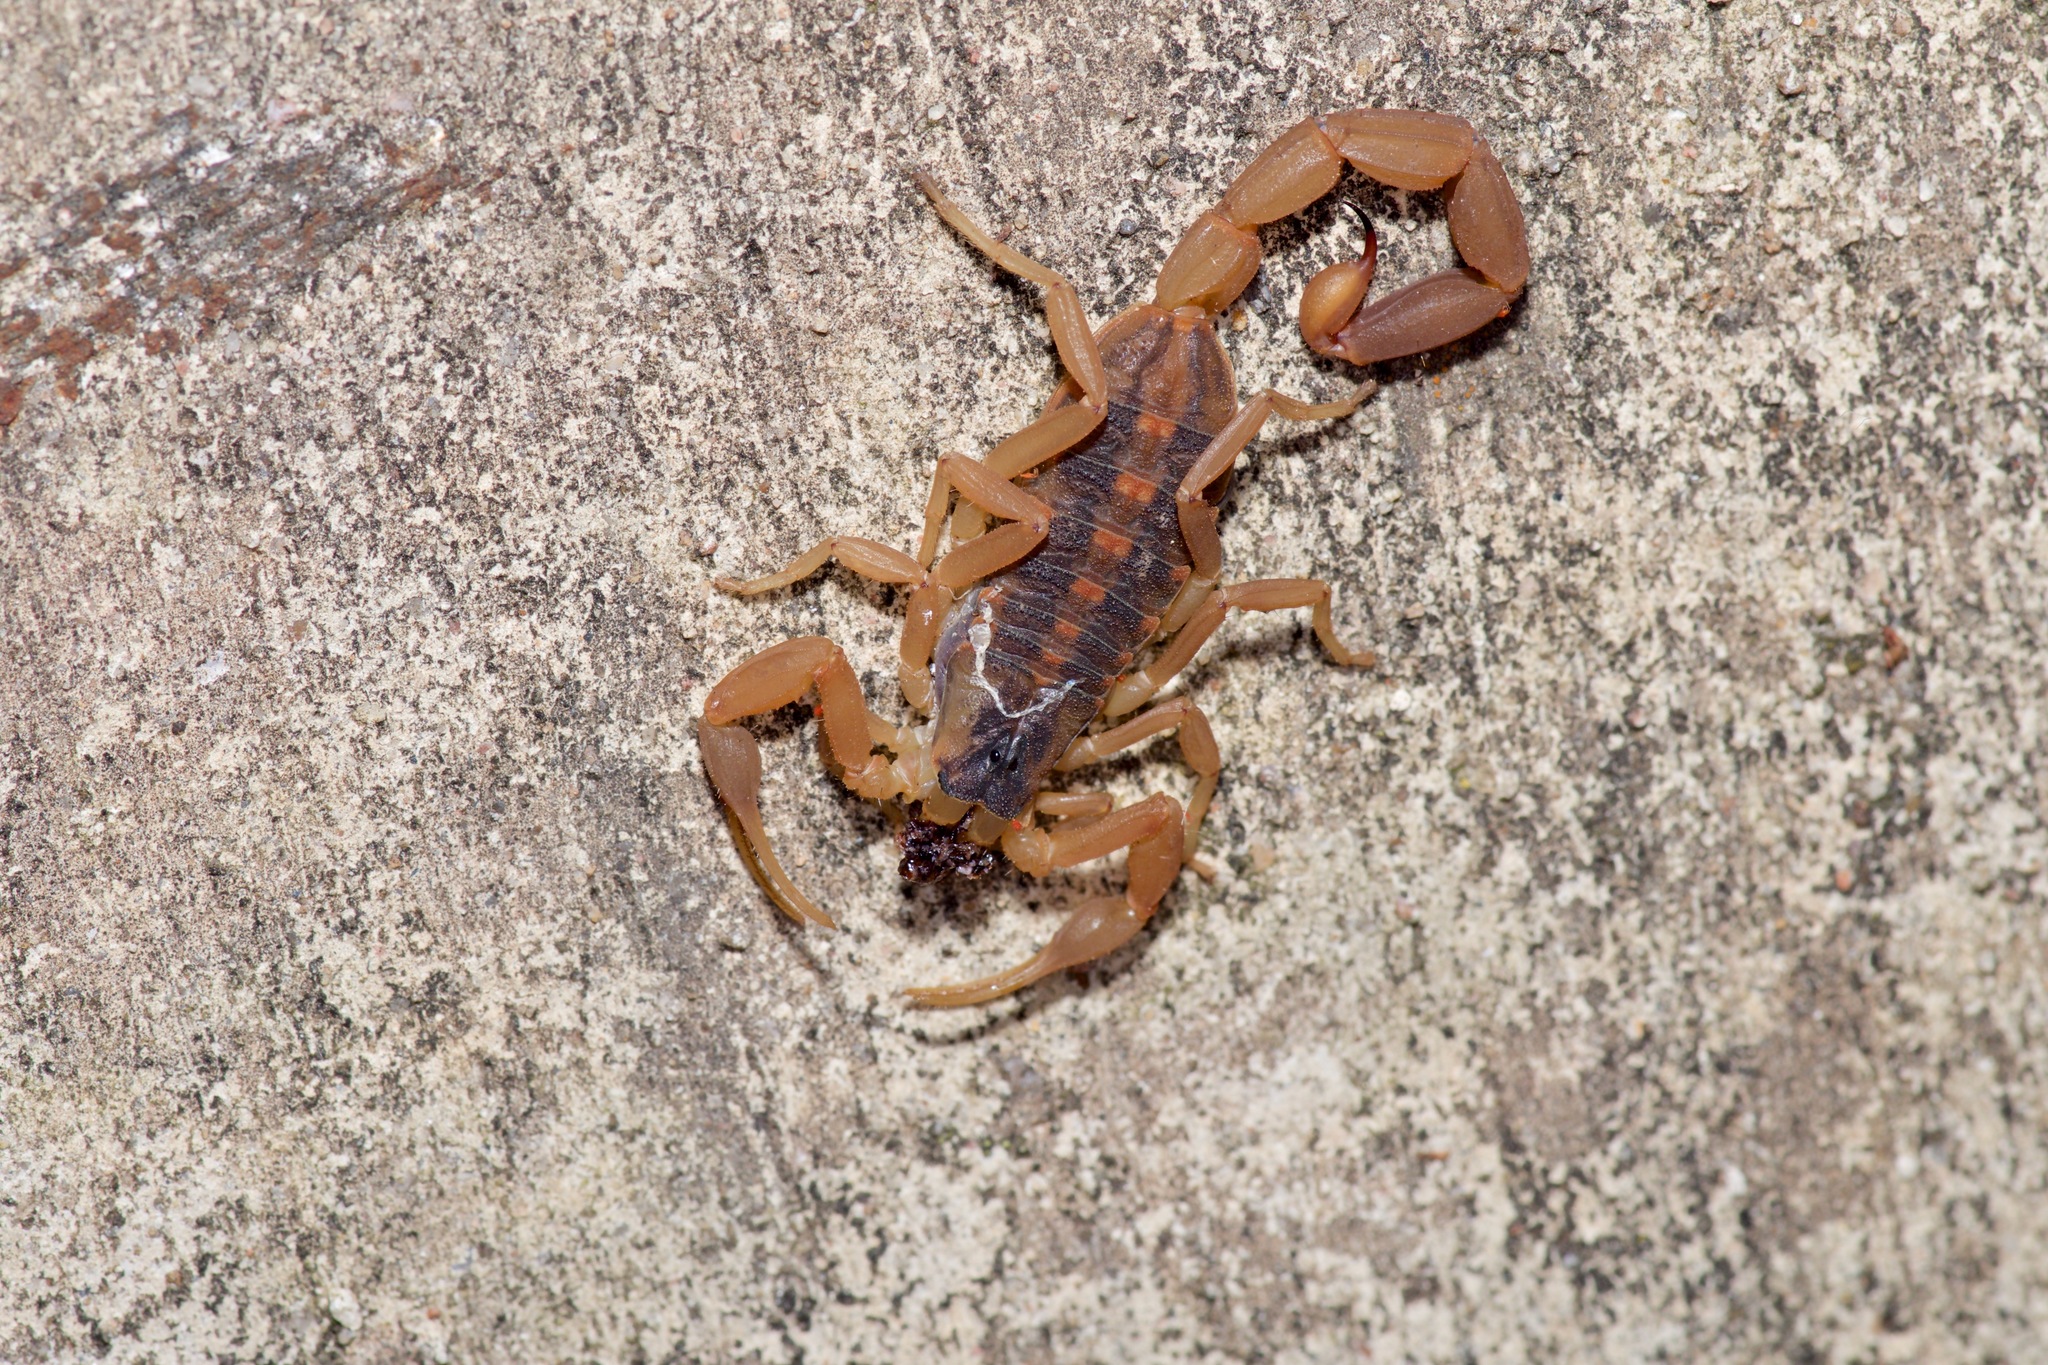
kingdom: Animalia
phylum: Arthropoda
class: Arachnida
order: Scorpiones
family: Buthidae
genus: Centruroides
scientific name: Centruroides vittatus
